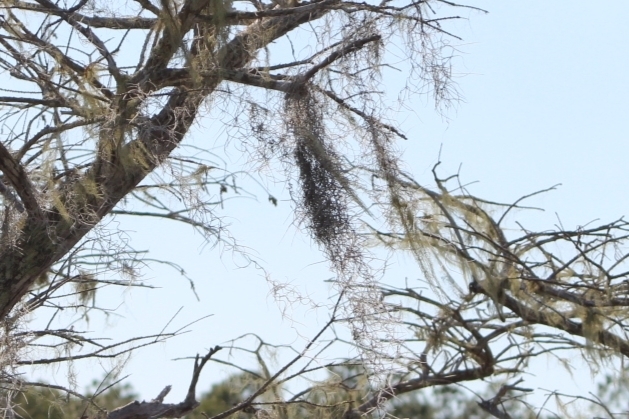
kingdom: Plantae
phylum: Tracheophyta
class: Liliopsida
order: Poales
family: Bromeliaceae
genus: Tillandsia
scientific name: Tillandsia usneoides
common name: Spanish moss
